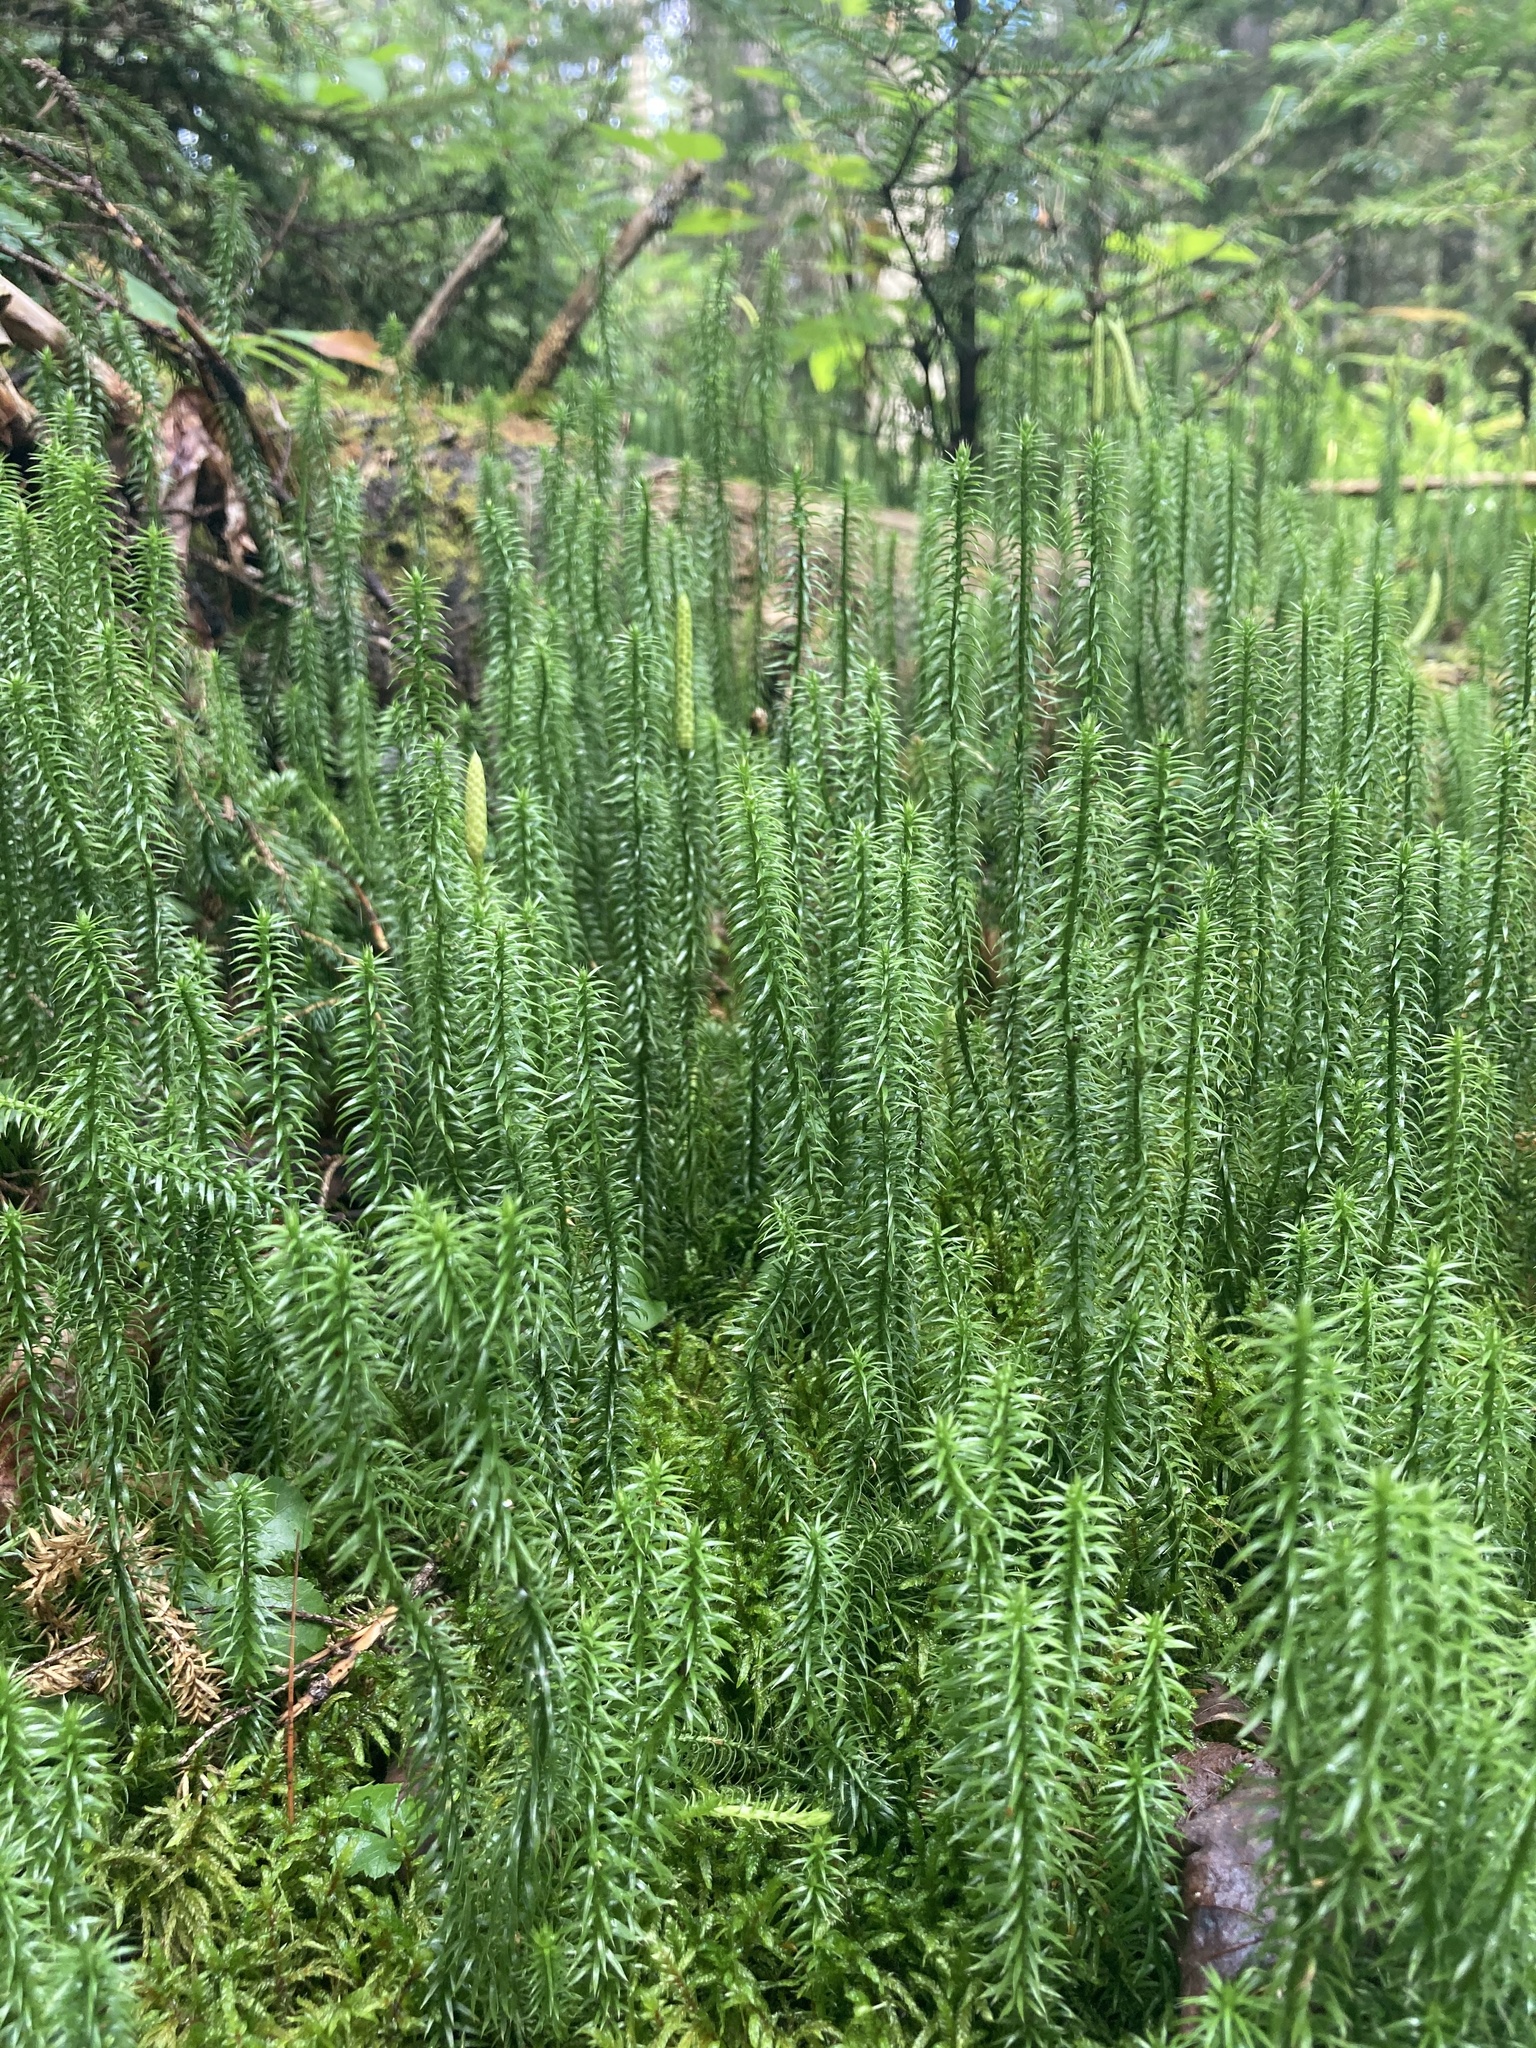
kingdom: Plantae
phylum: Tracheophyta
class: Lycopodiopsida
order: Lycopodiales
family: Lycopodiaceae
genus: Spinulum
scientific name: Spinulum annotinum
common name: Interrupted club-moss
